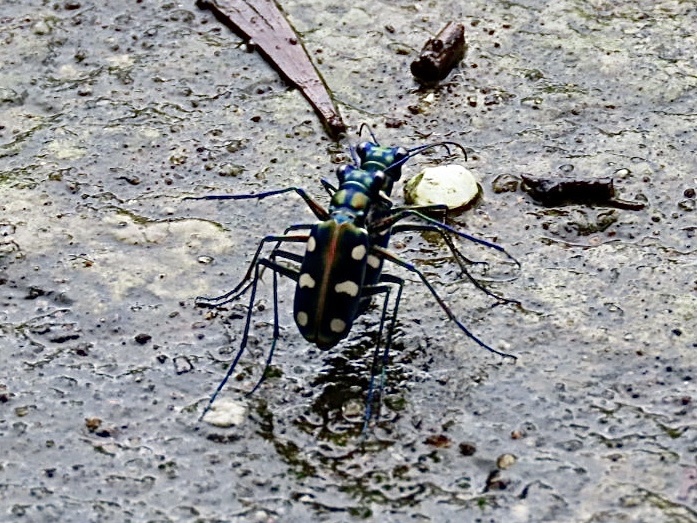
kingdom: Animalia
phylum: Arthropoda
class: Insecta
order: Coleoptera
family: Carabidae
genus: Cicindela
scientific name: Cicindela aurulenta
